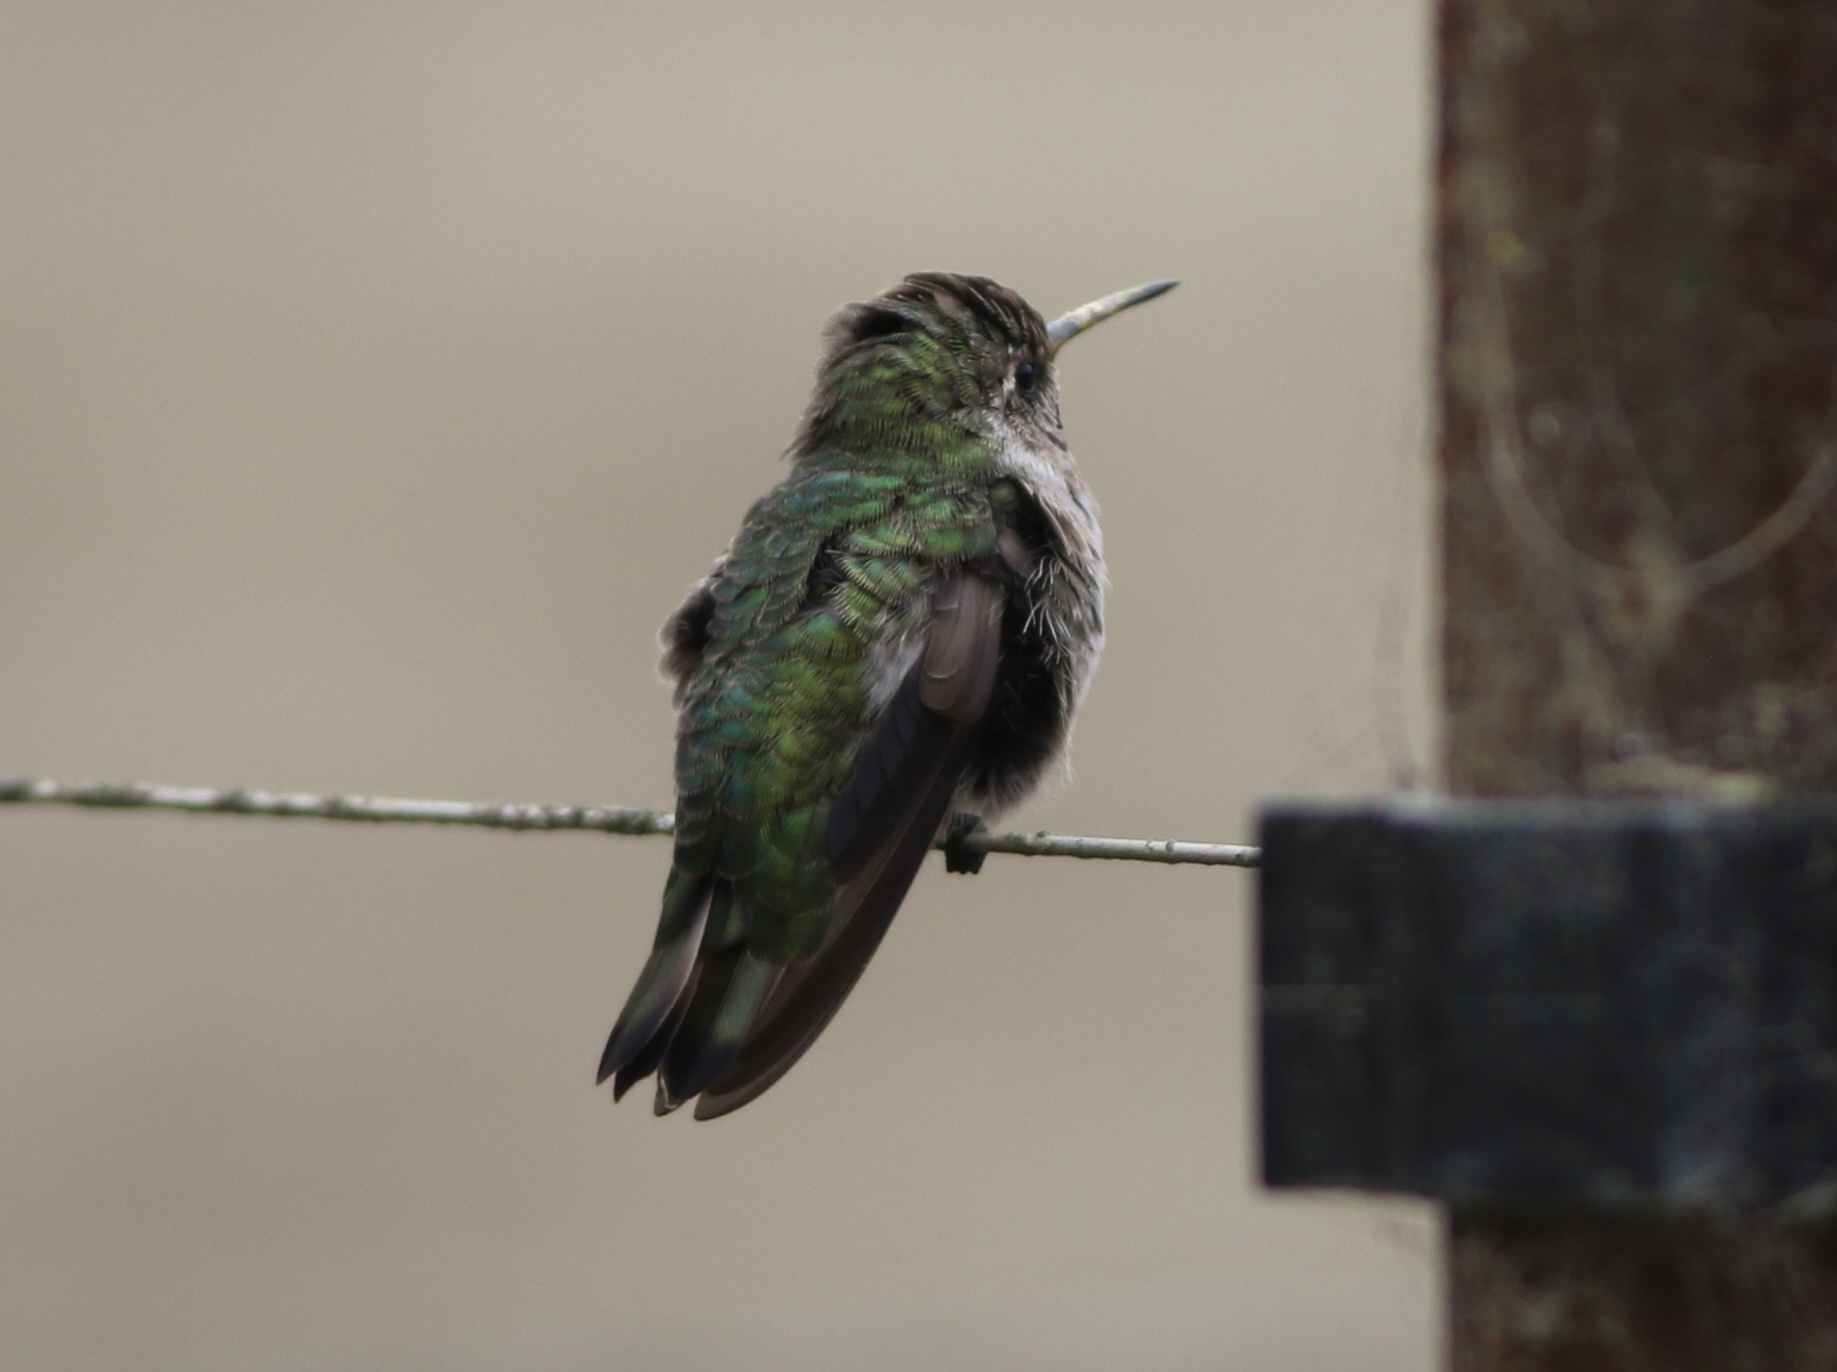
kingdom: Animalia
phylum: Chordata
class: Aves
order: Apodiformes
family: Trochilidae
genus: Calypte
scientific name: Calypte anna
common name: Anna's hummingbird
